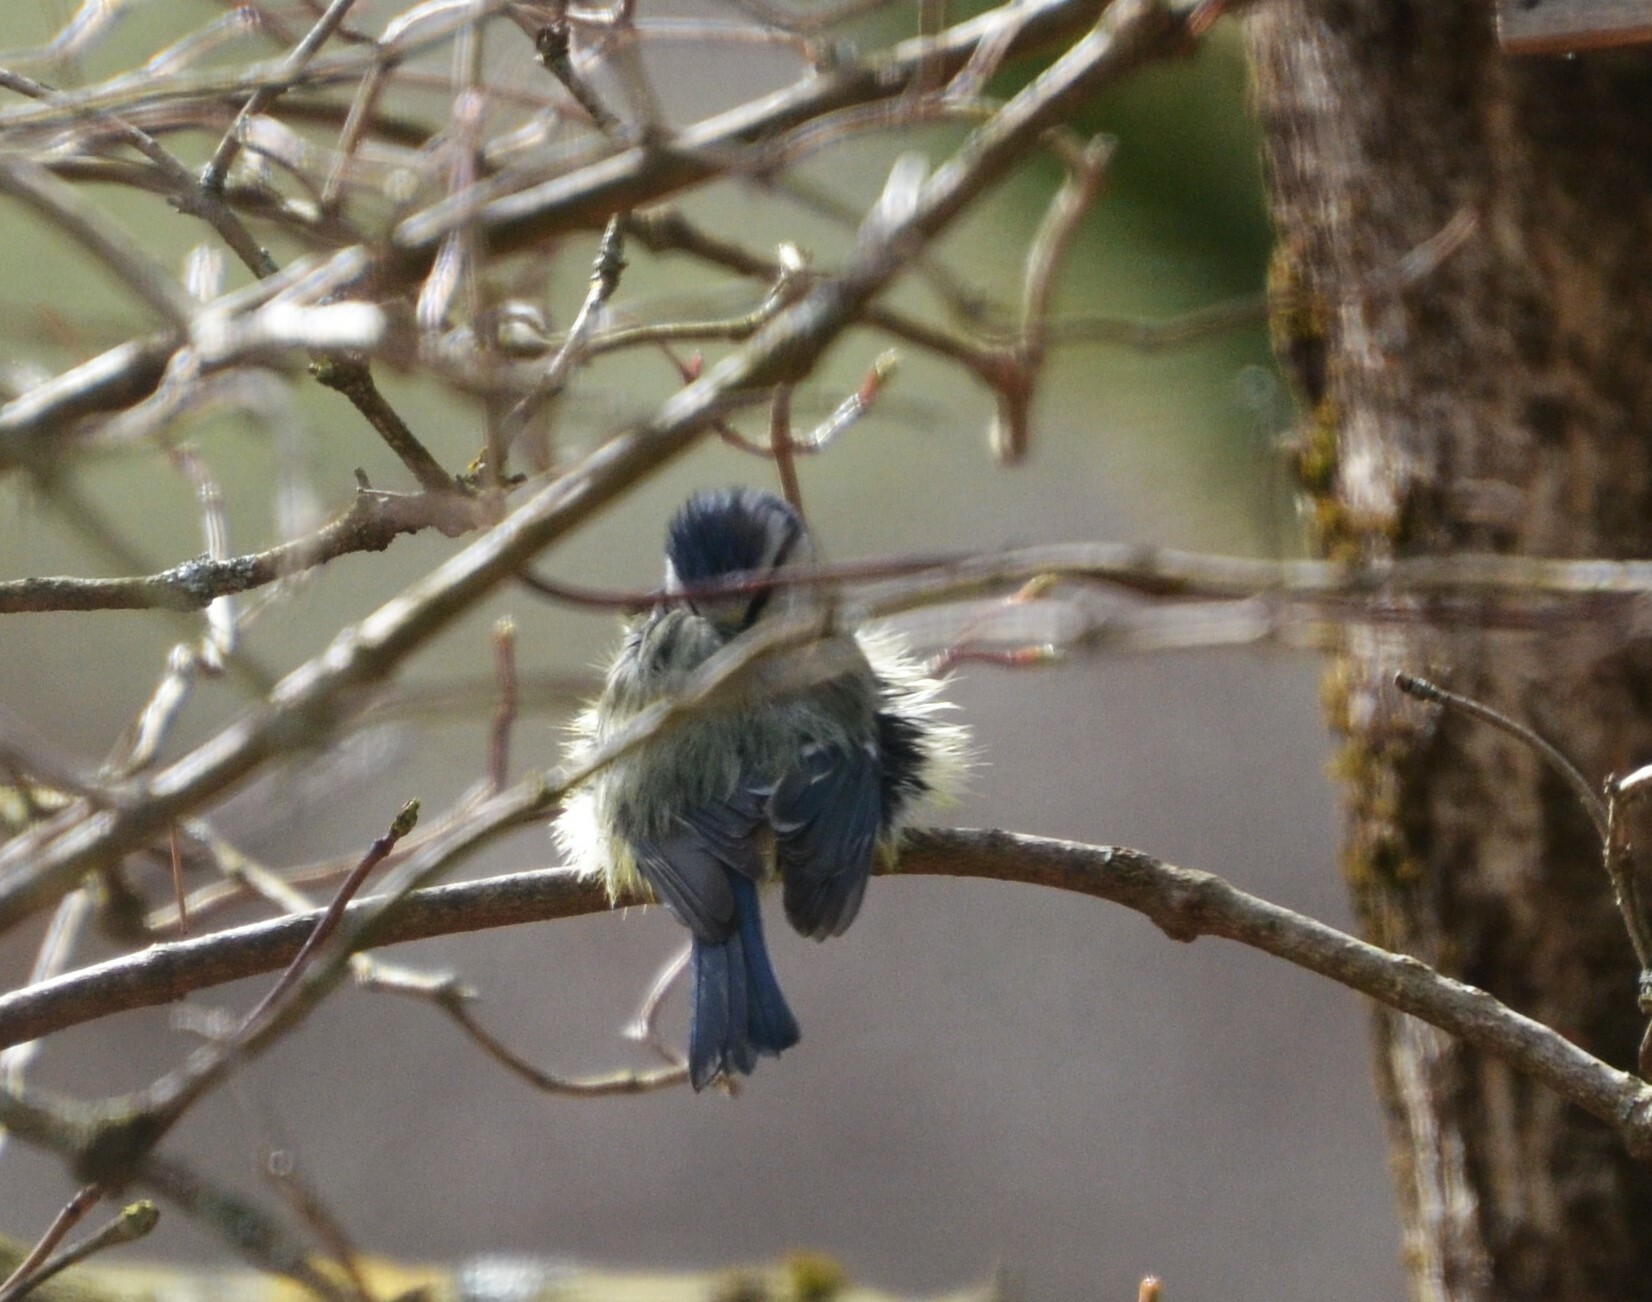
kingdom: Animalia
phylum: Chordata
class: Aves
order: Passeriformes
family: Paridae
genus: Cyanistes
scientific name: Cyanistes caeruleus
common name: Eurasian blue tit
